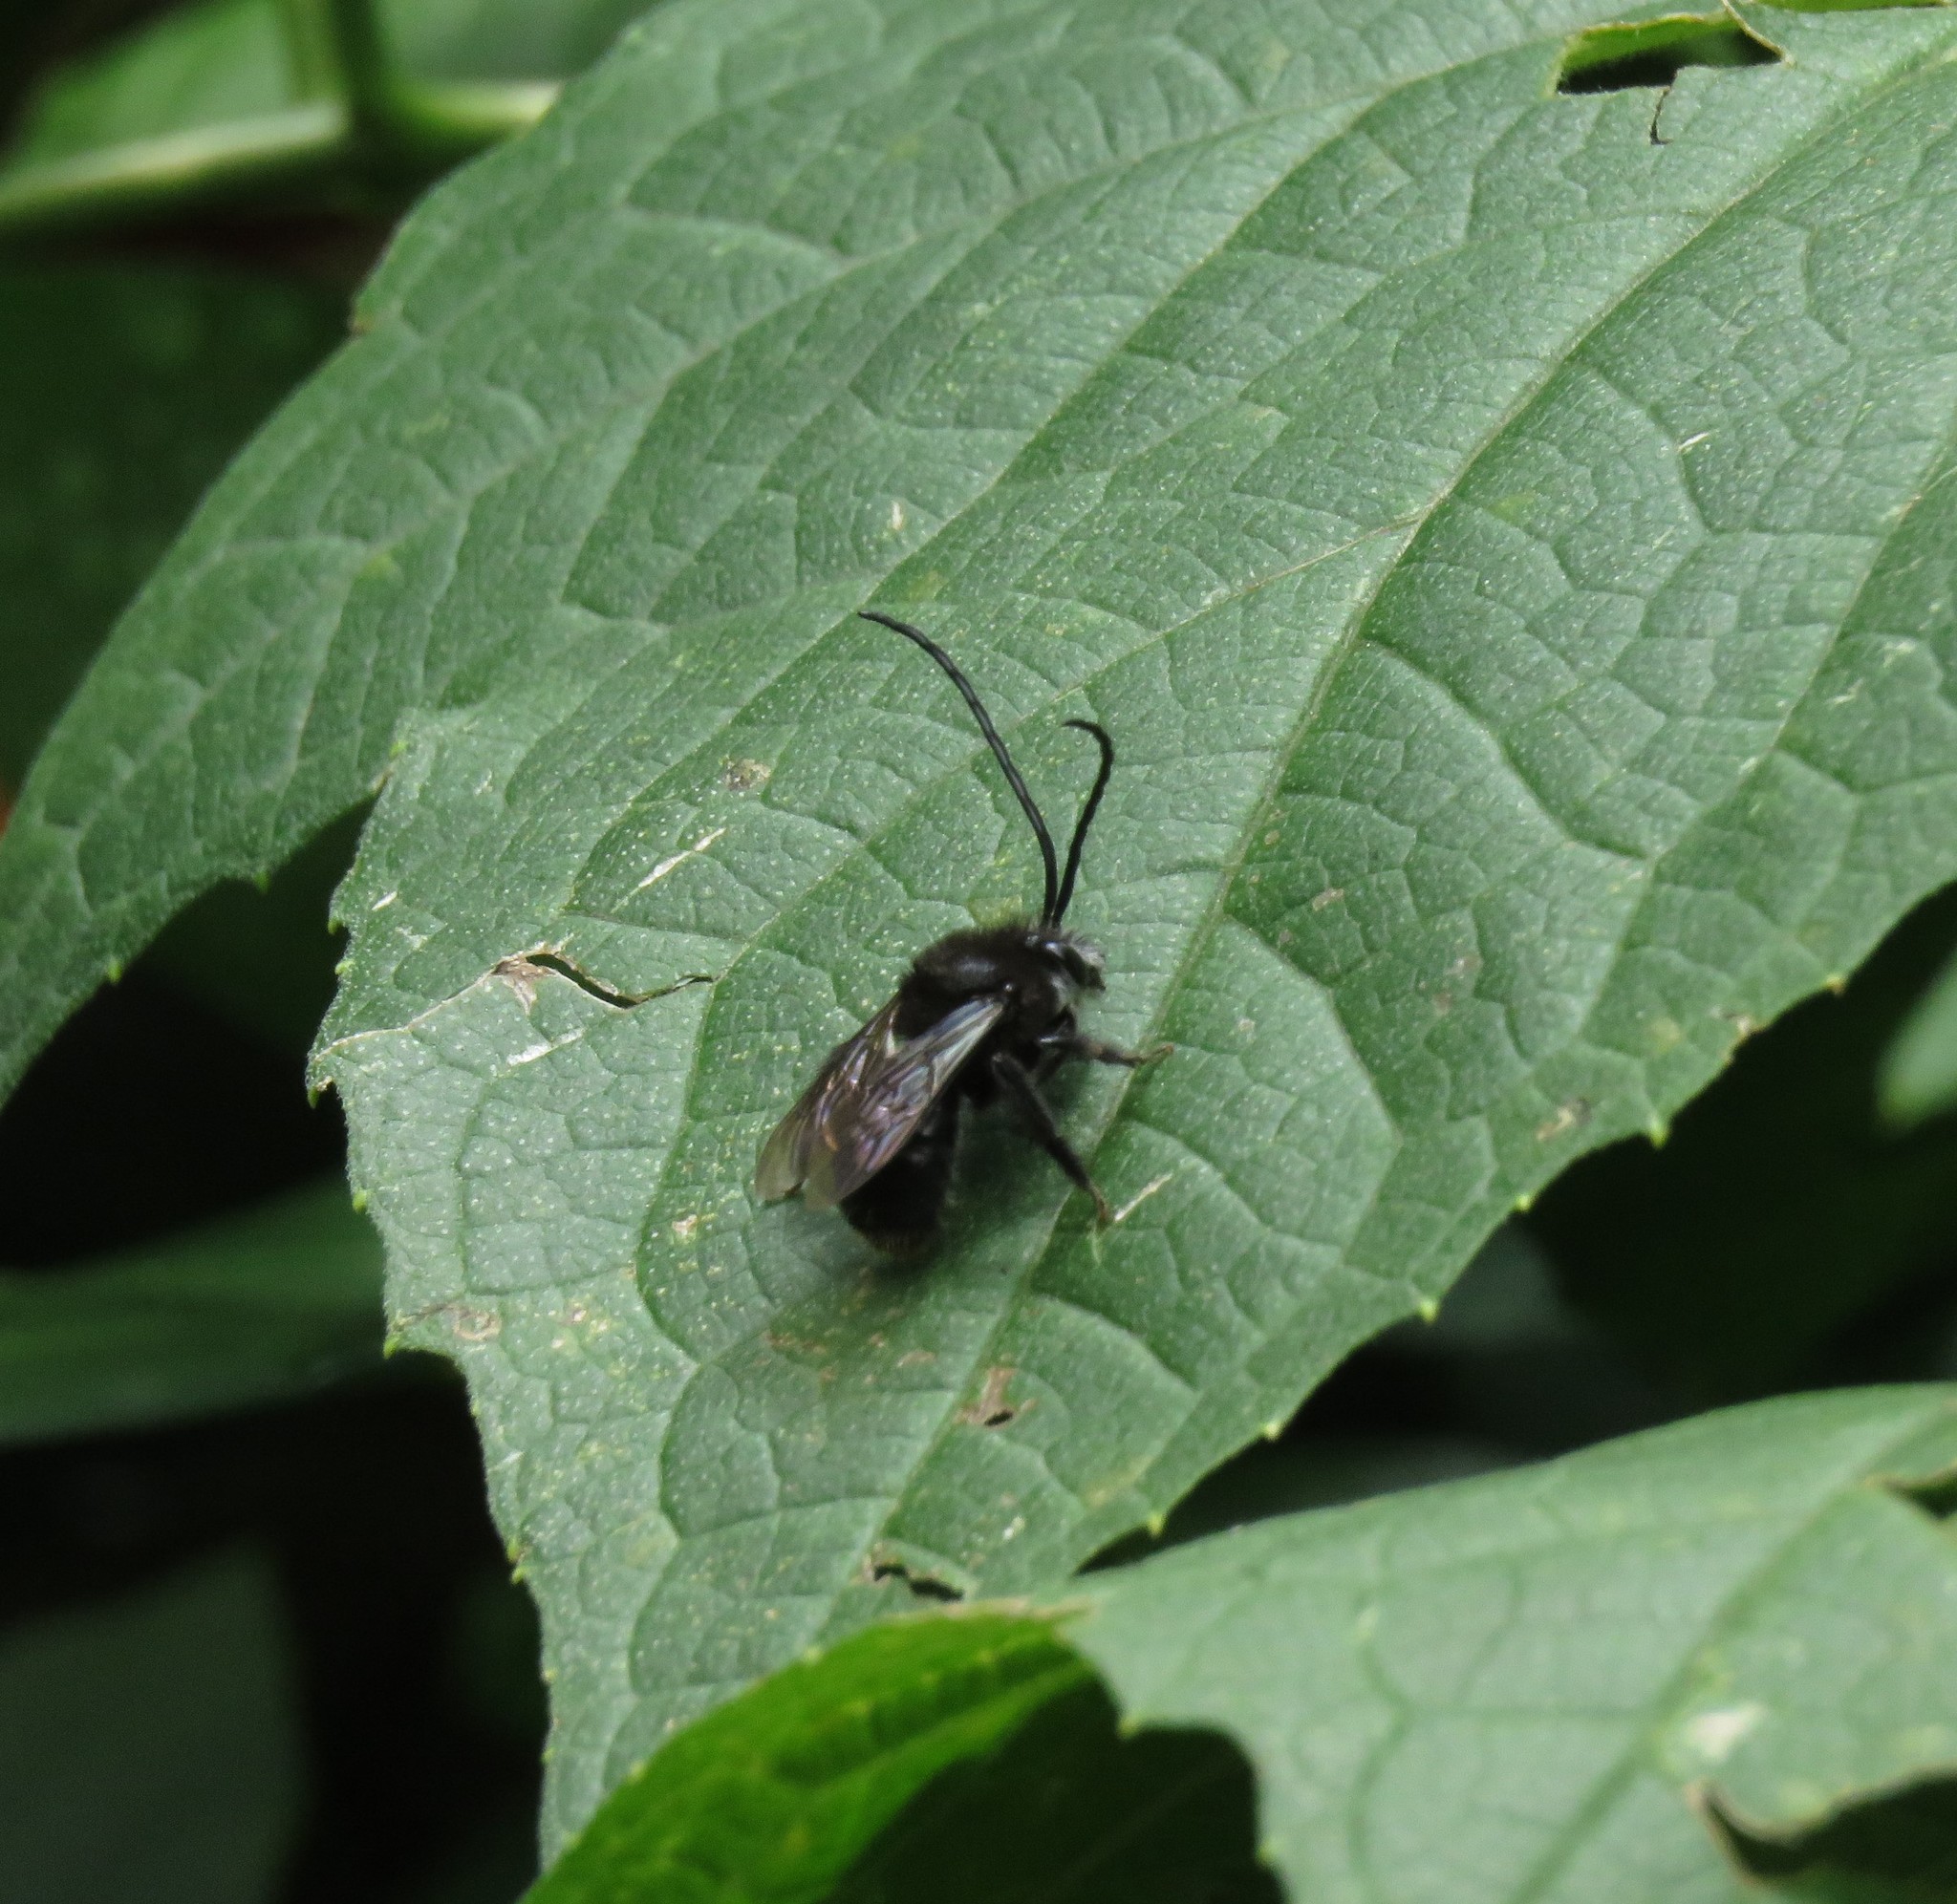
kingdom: Animalia
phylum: Arthropoda
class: Insecta
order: Hymenoptera
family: Apidae
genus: Thygater
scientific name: Thygater aethiops
